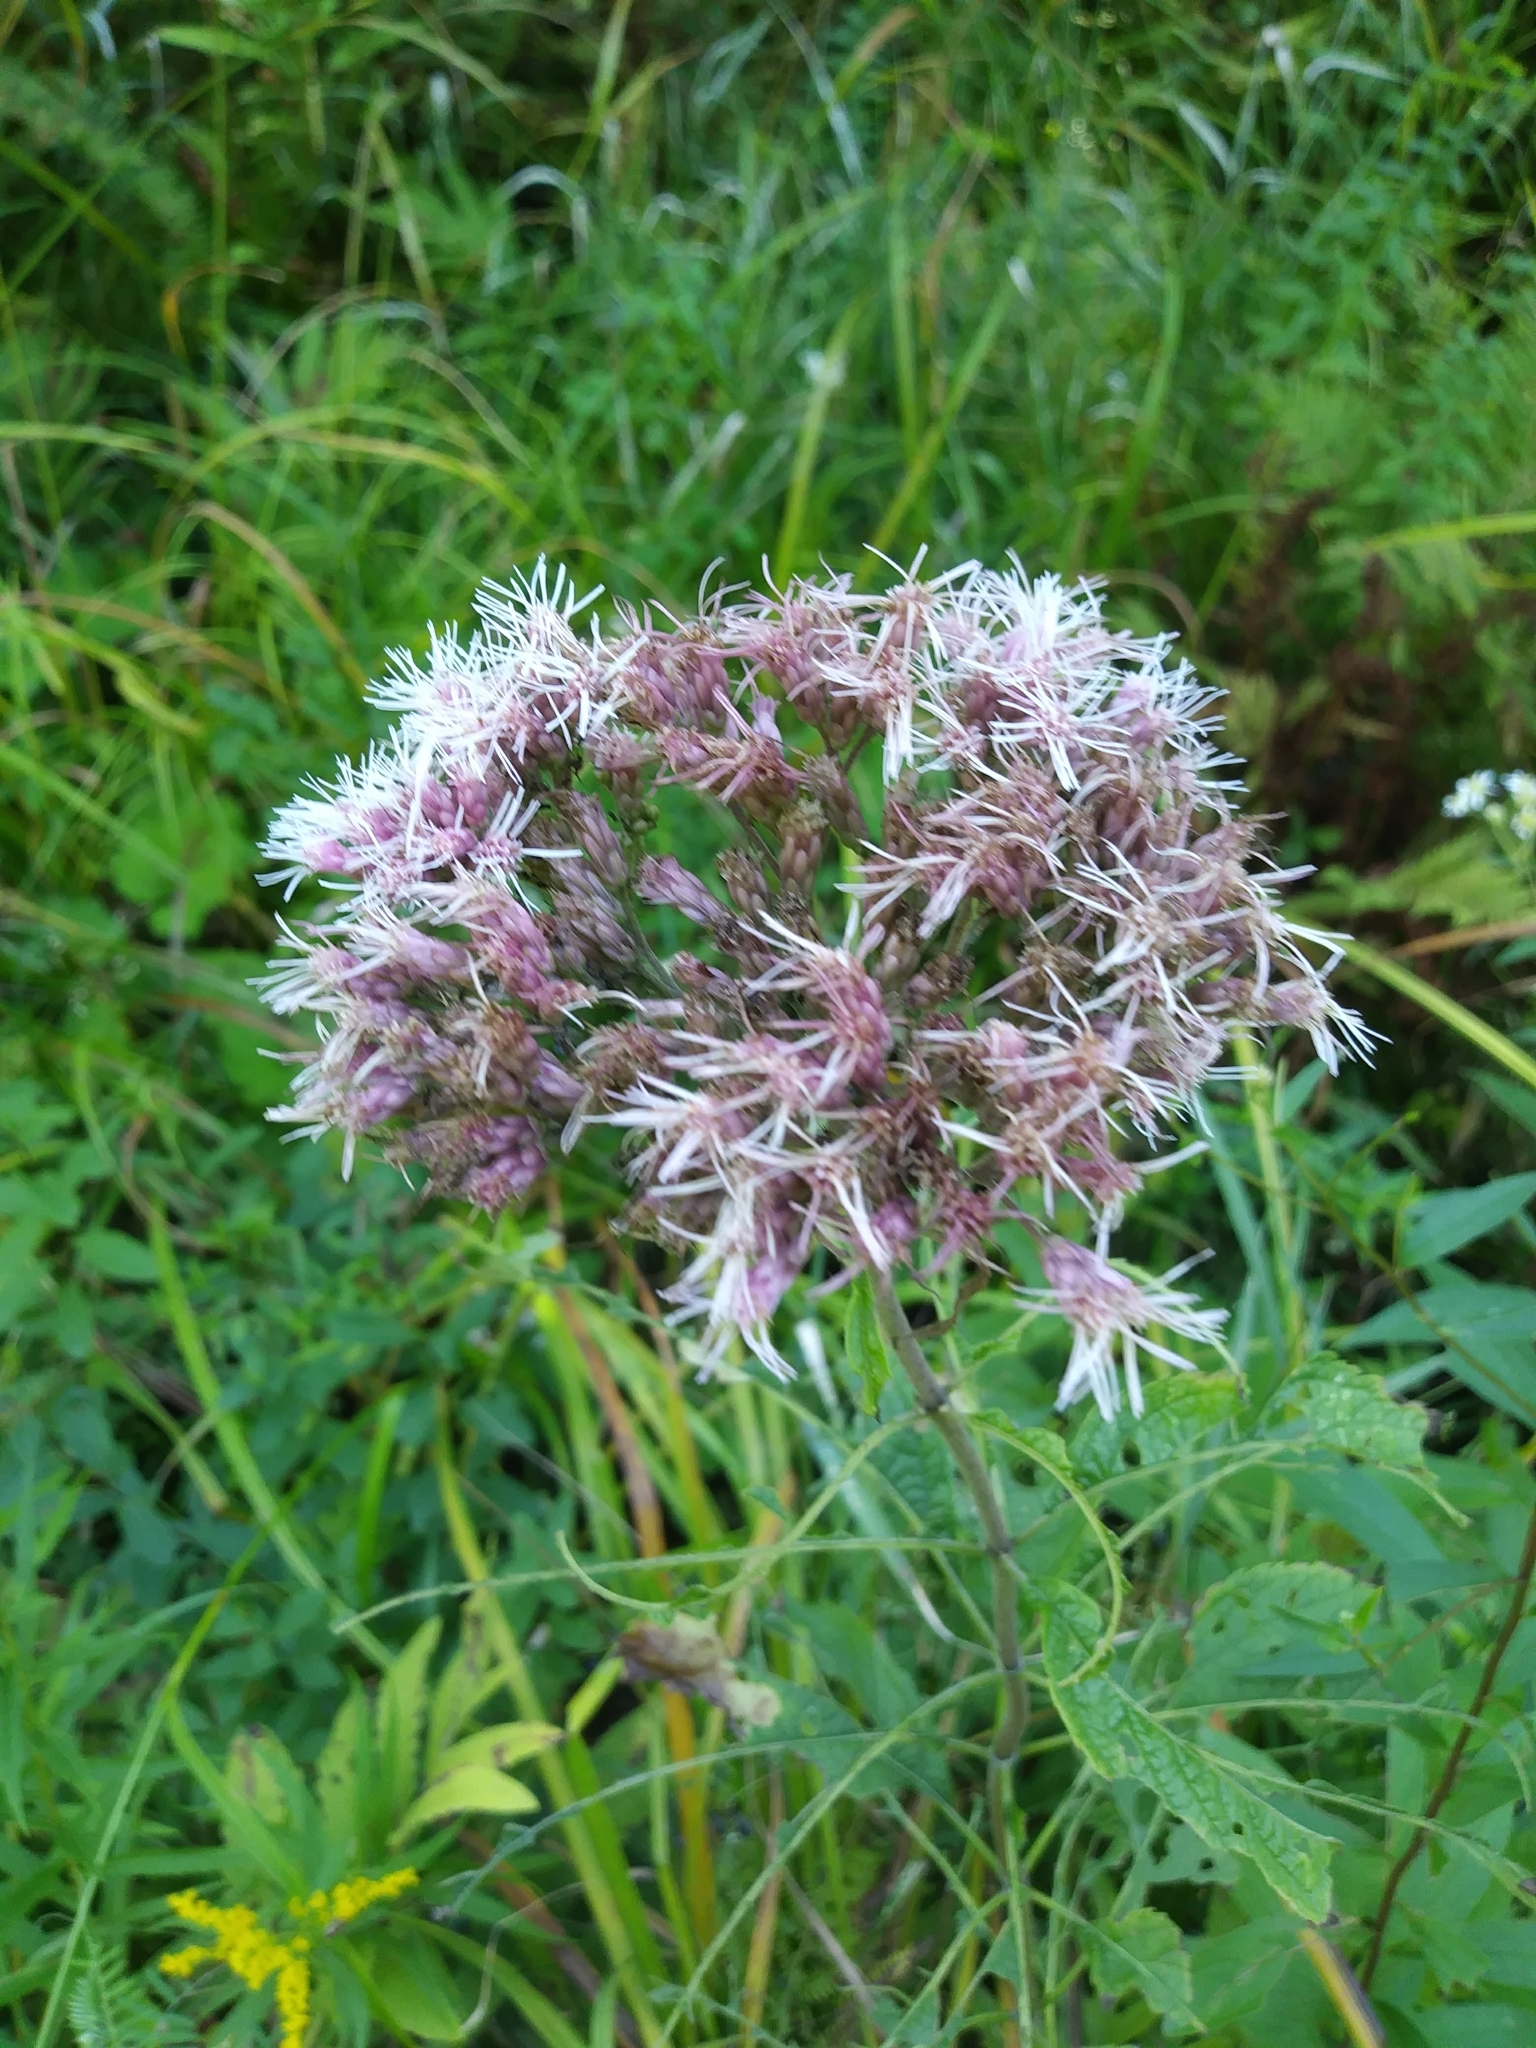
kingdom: Plantae
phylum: Tracheophyta
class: Magnoliopsida
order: Asterales
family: Asteraceae
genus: Eutrochium
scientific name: Eutrochium maculatum
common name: Spotted joe pye weed
